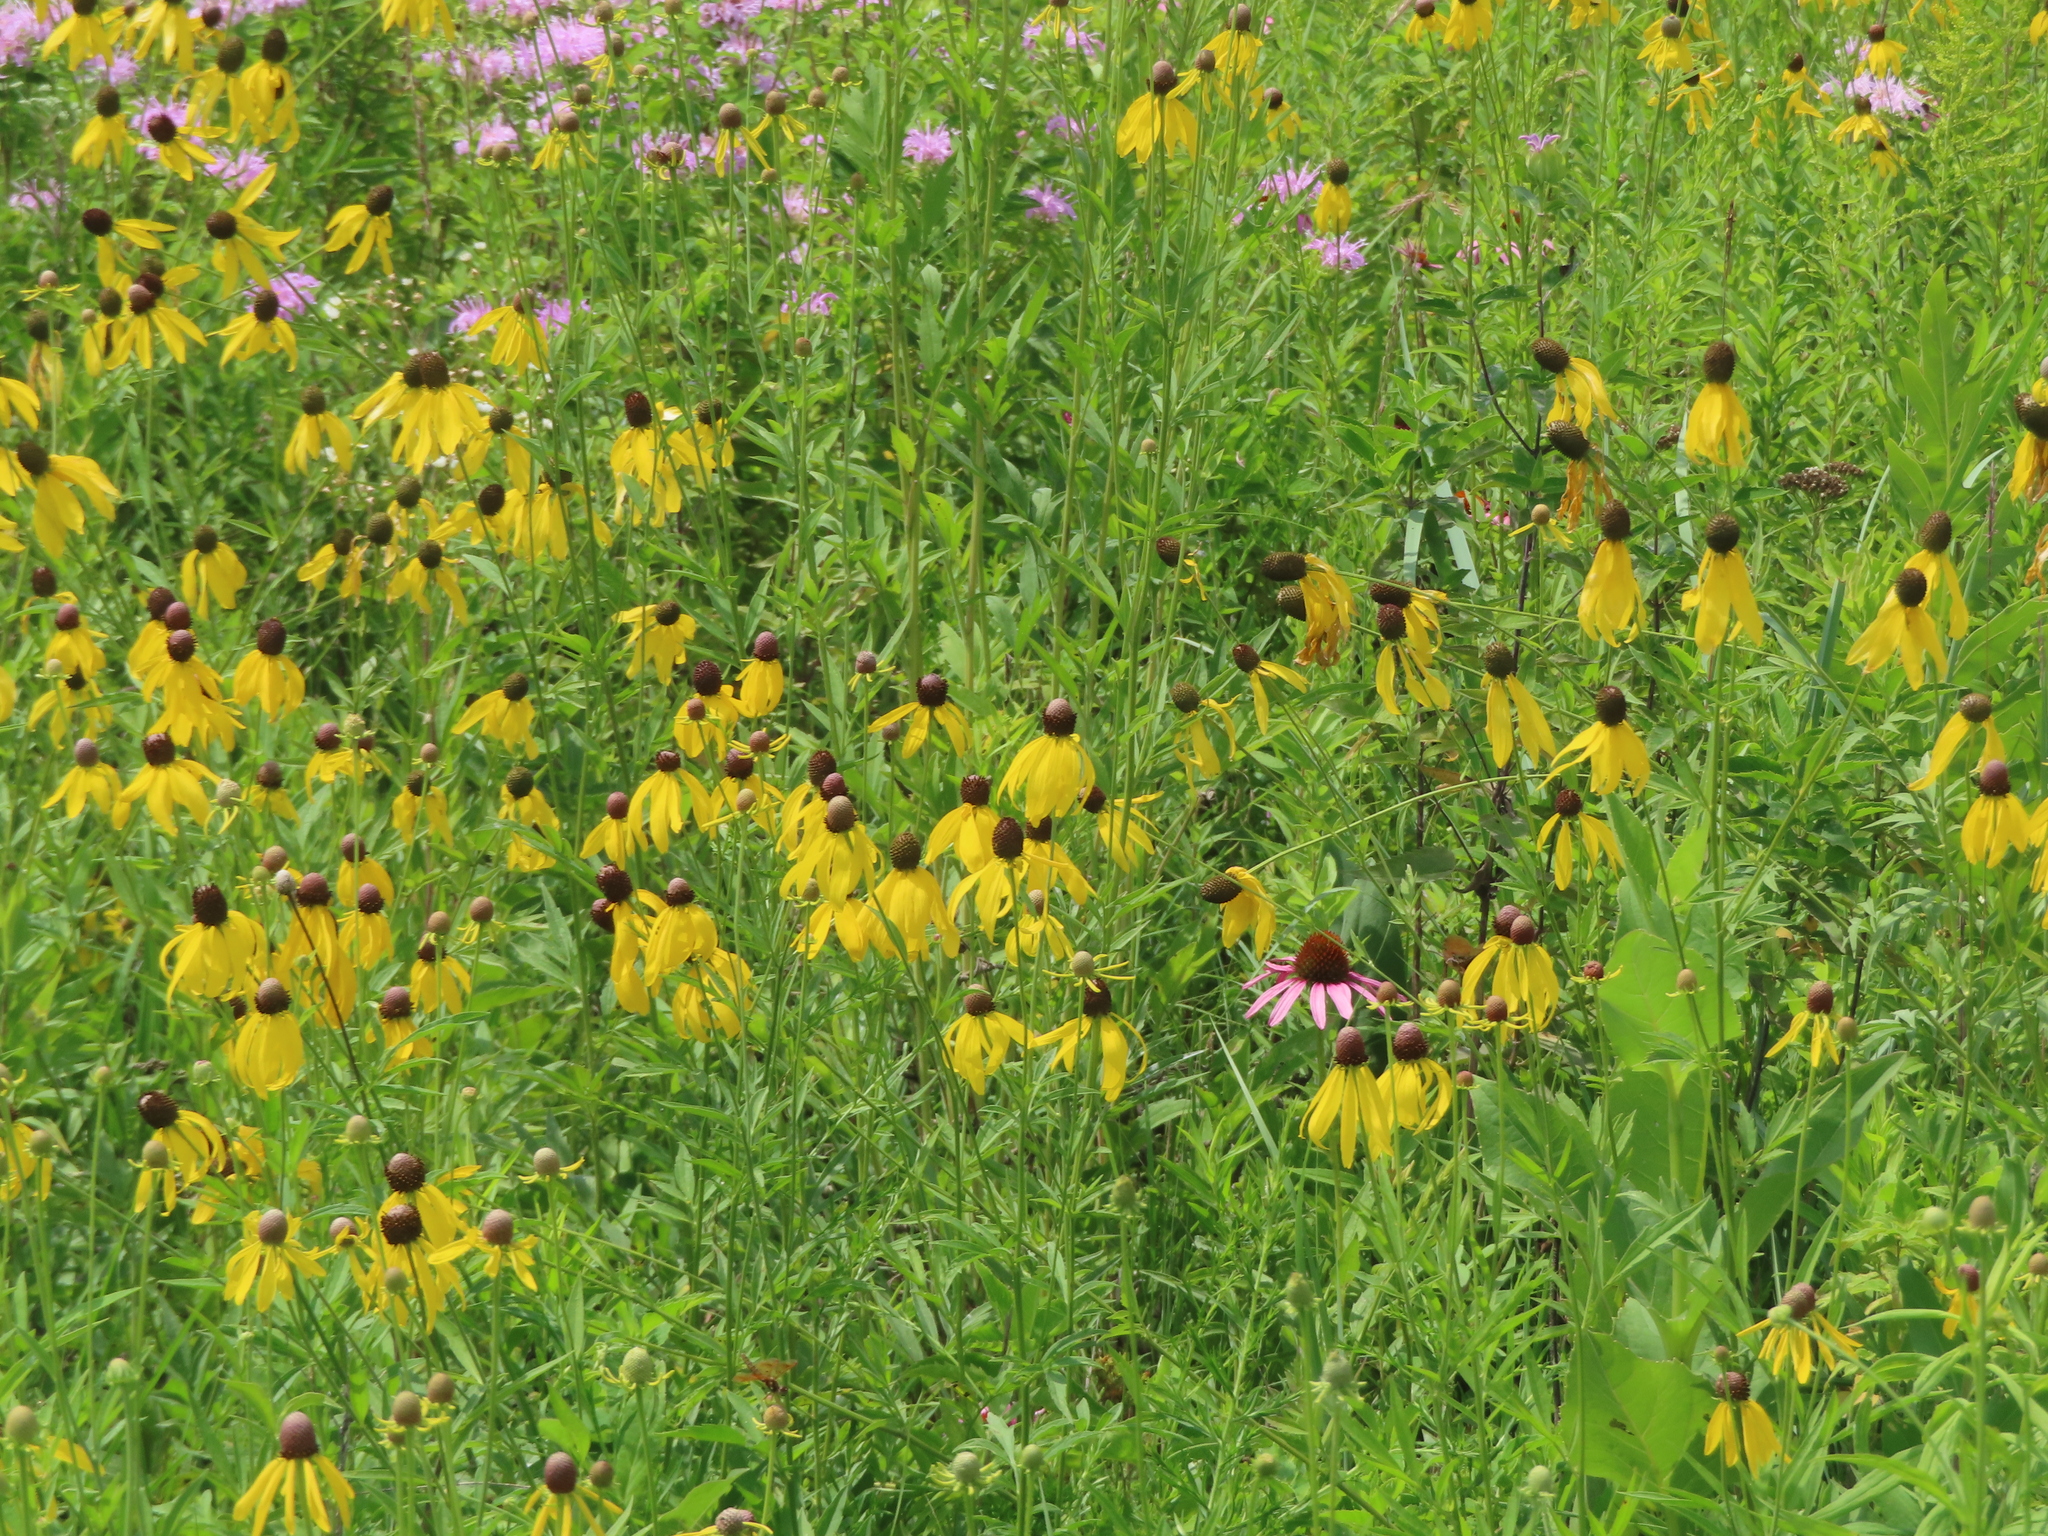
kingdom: Plantae
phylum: Tracheophyta
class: Magnoliopsida
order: Asterales
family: Asteraceae
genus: Ratibida
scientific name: Ratibida pinnata
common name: Drooping prairie-coneflower
